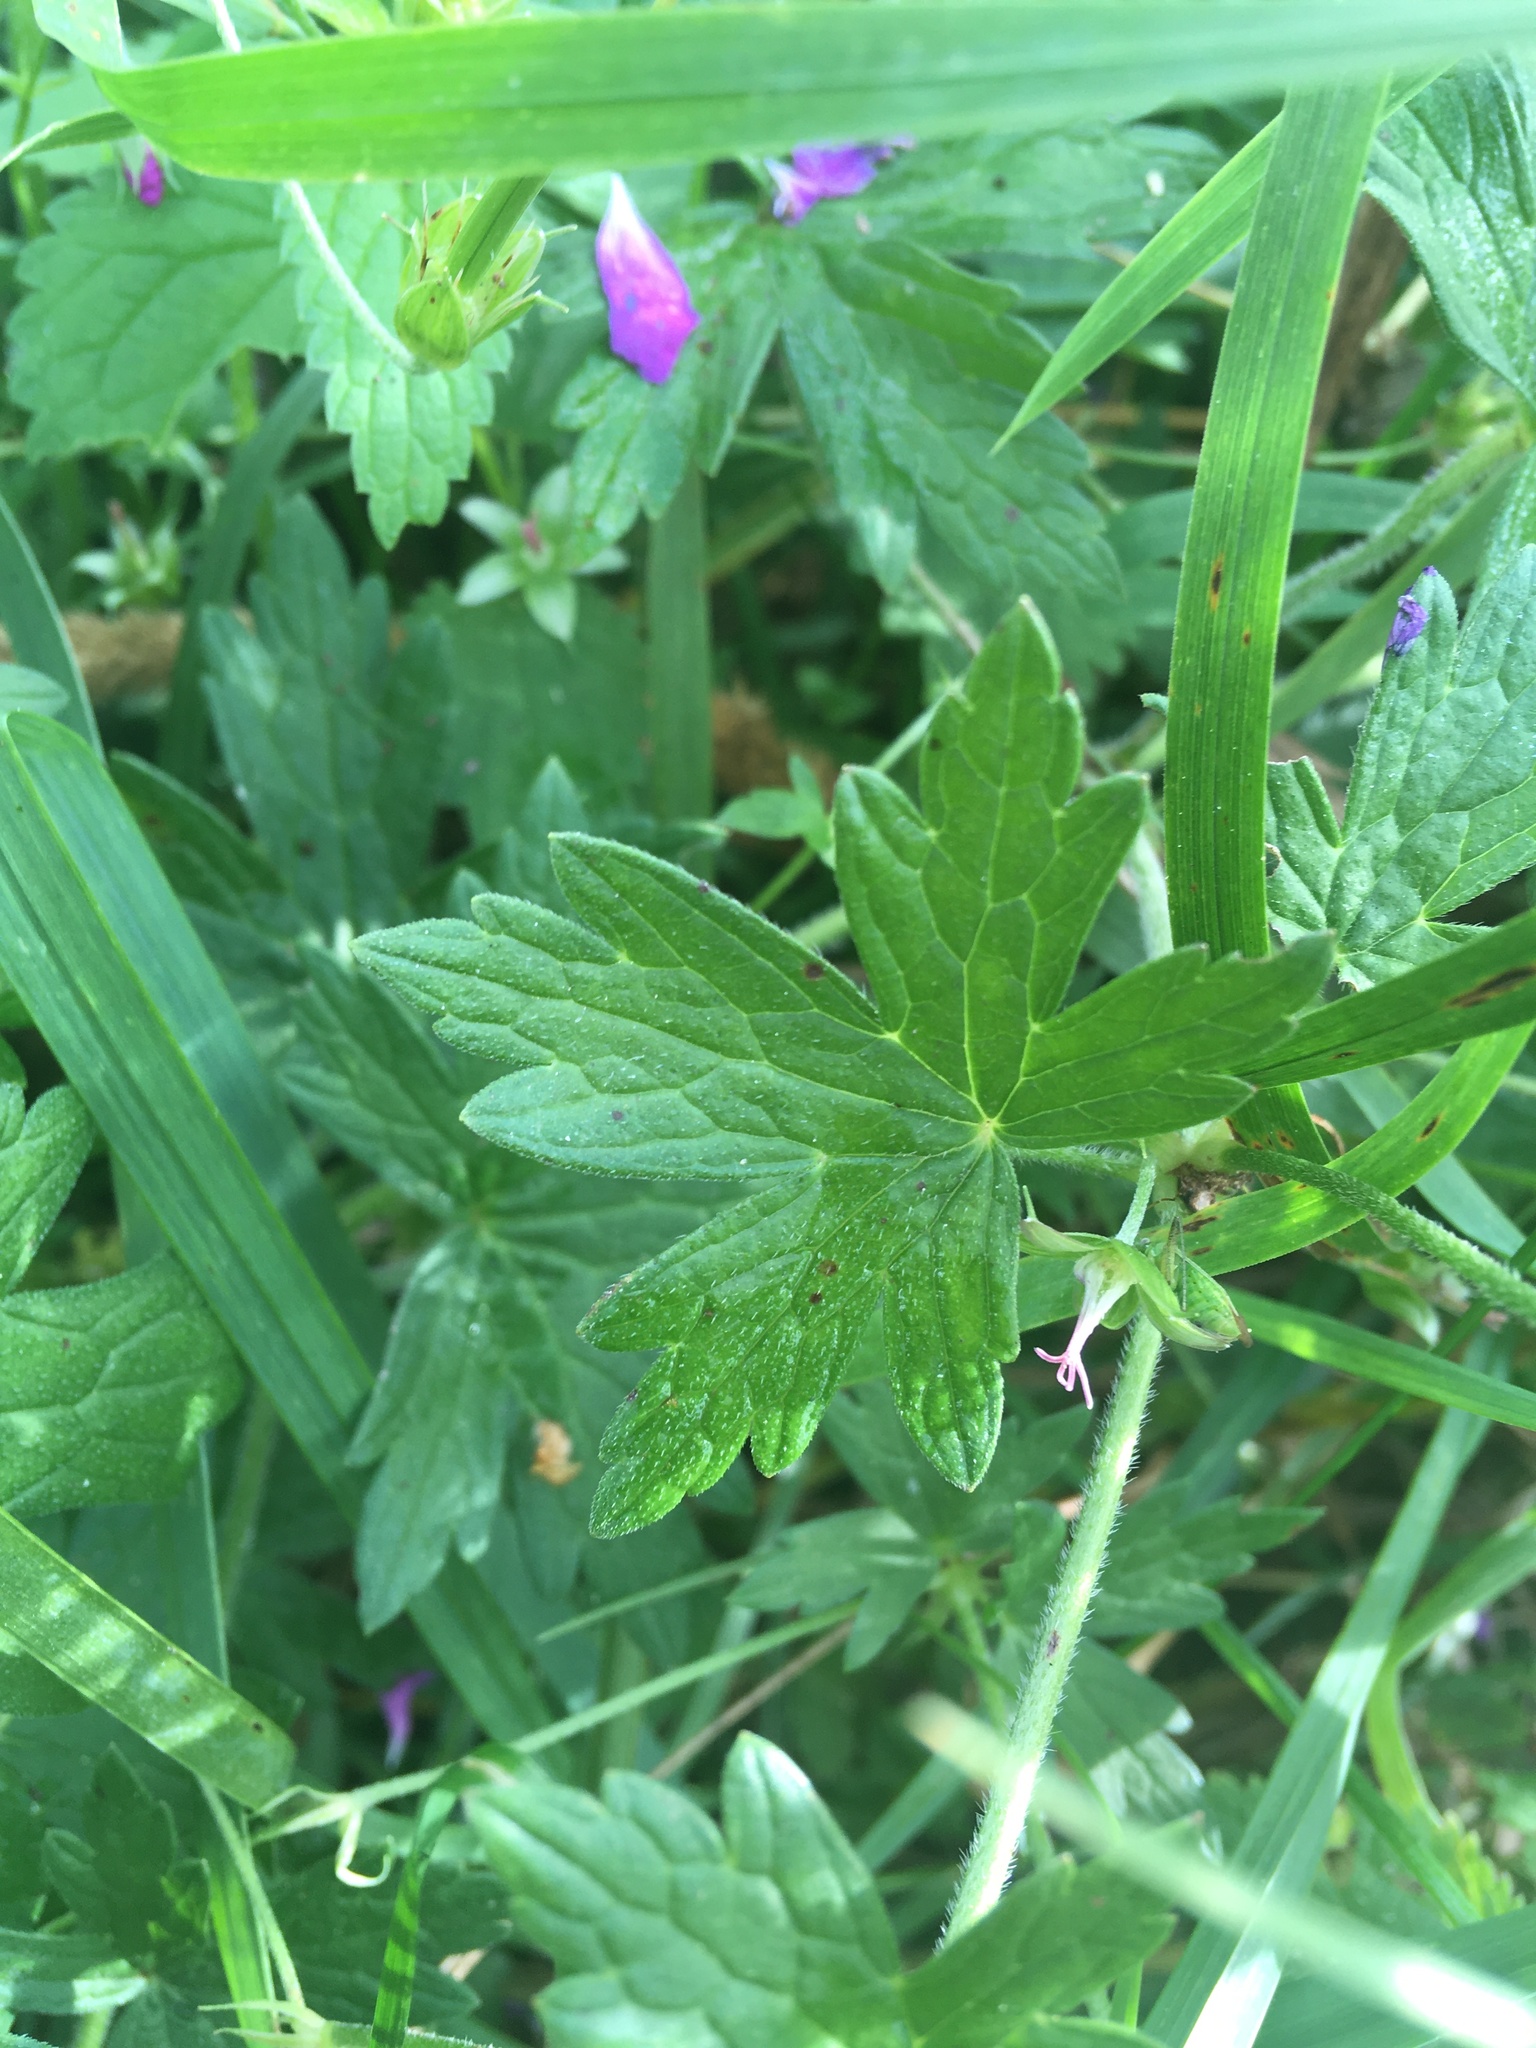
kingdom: Plantae
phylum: Tracheophyta
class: Magnoliopsida
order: Geraniales
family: Geraniaceae
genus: Geranium
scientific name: Geranium palustre
